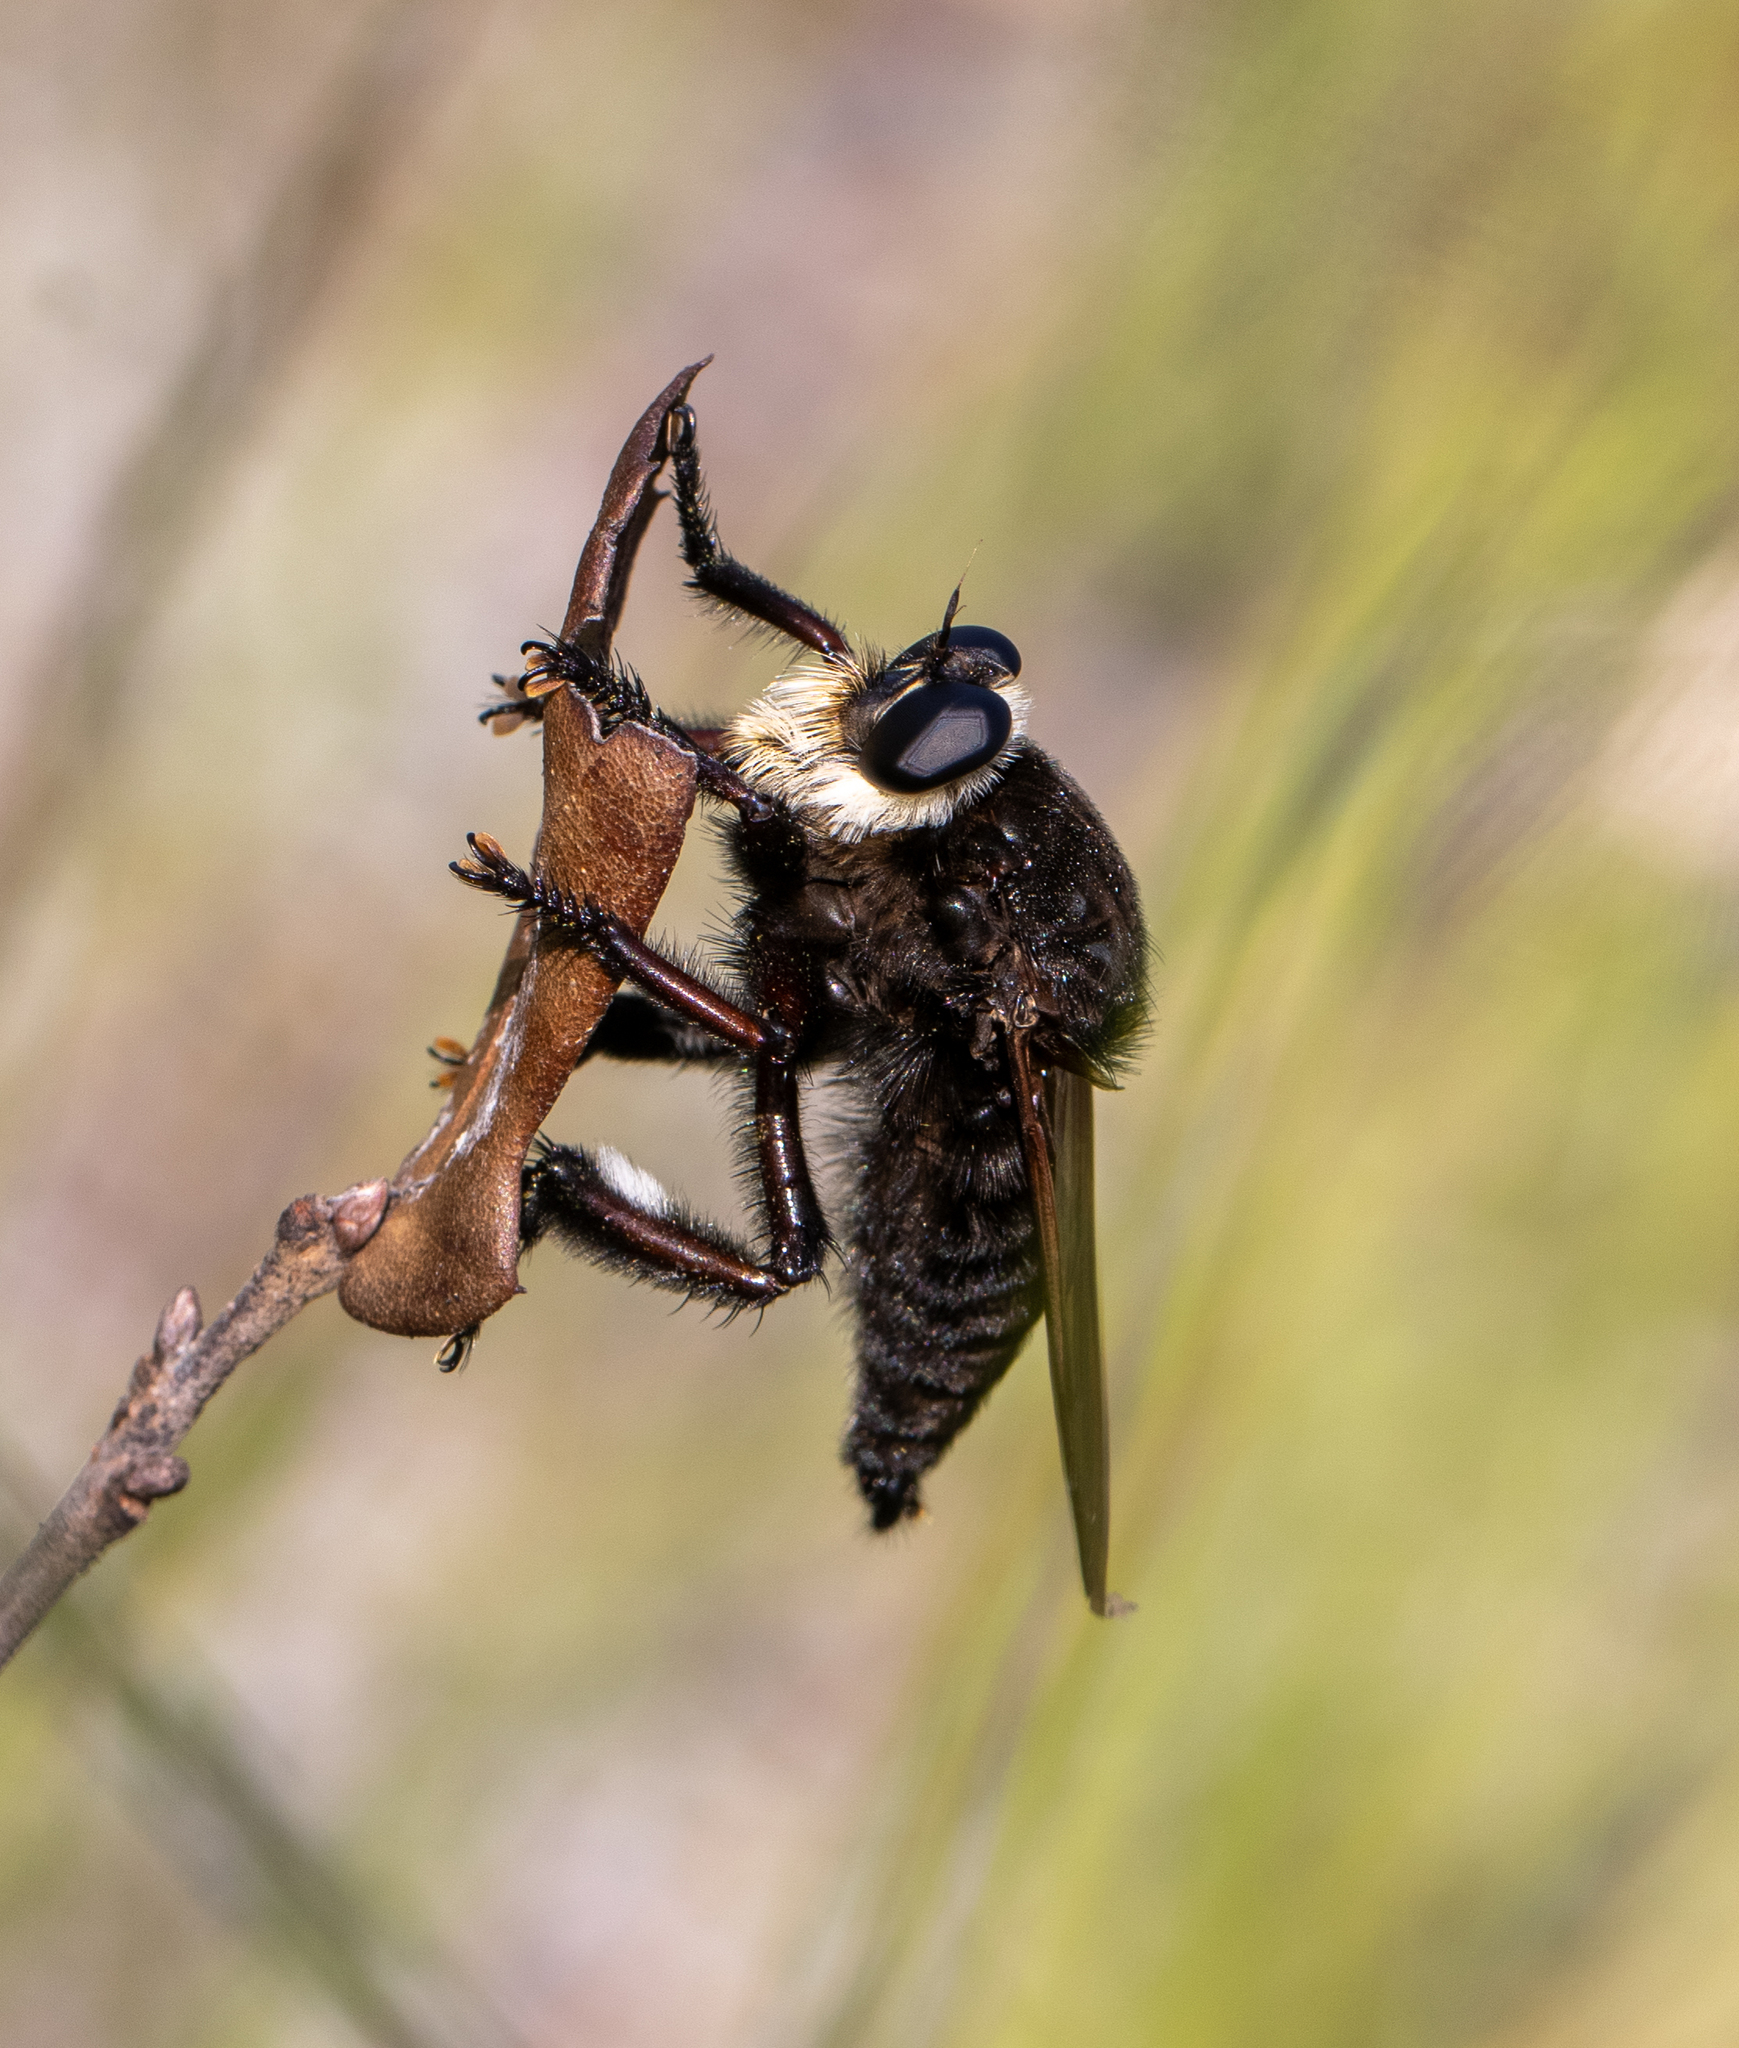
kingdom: Animalia
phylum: Arthropoda
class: Insecta
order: Diptera
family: Asilidae
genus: Mallophora
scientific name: Mallophora atra
